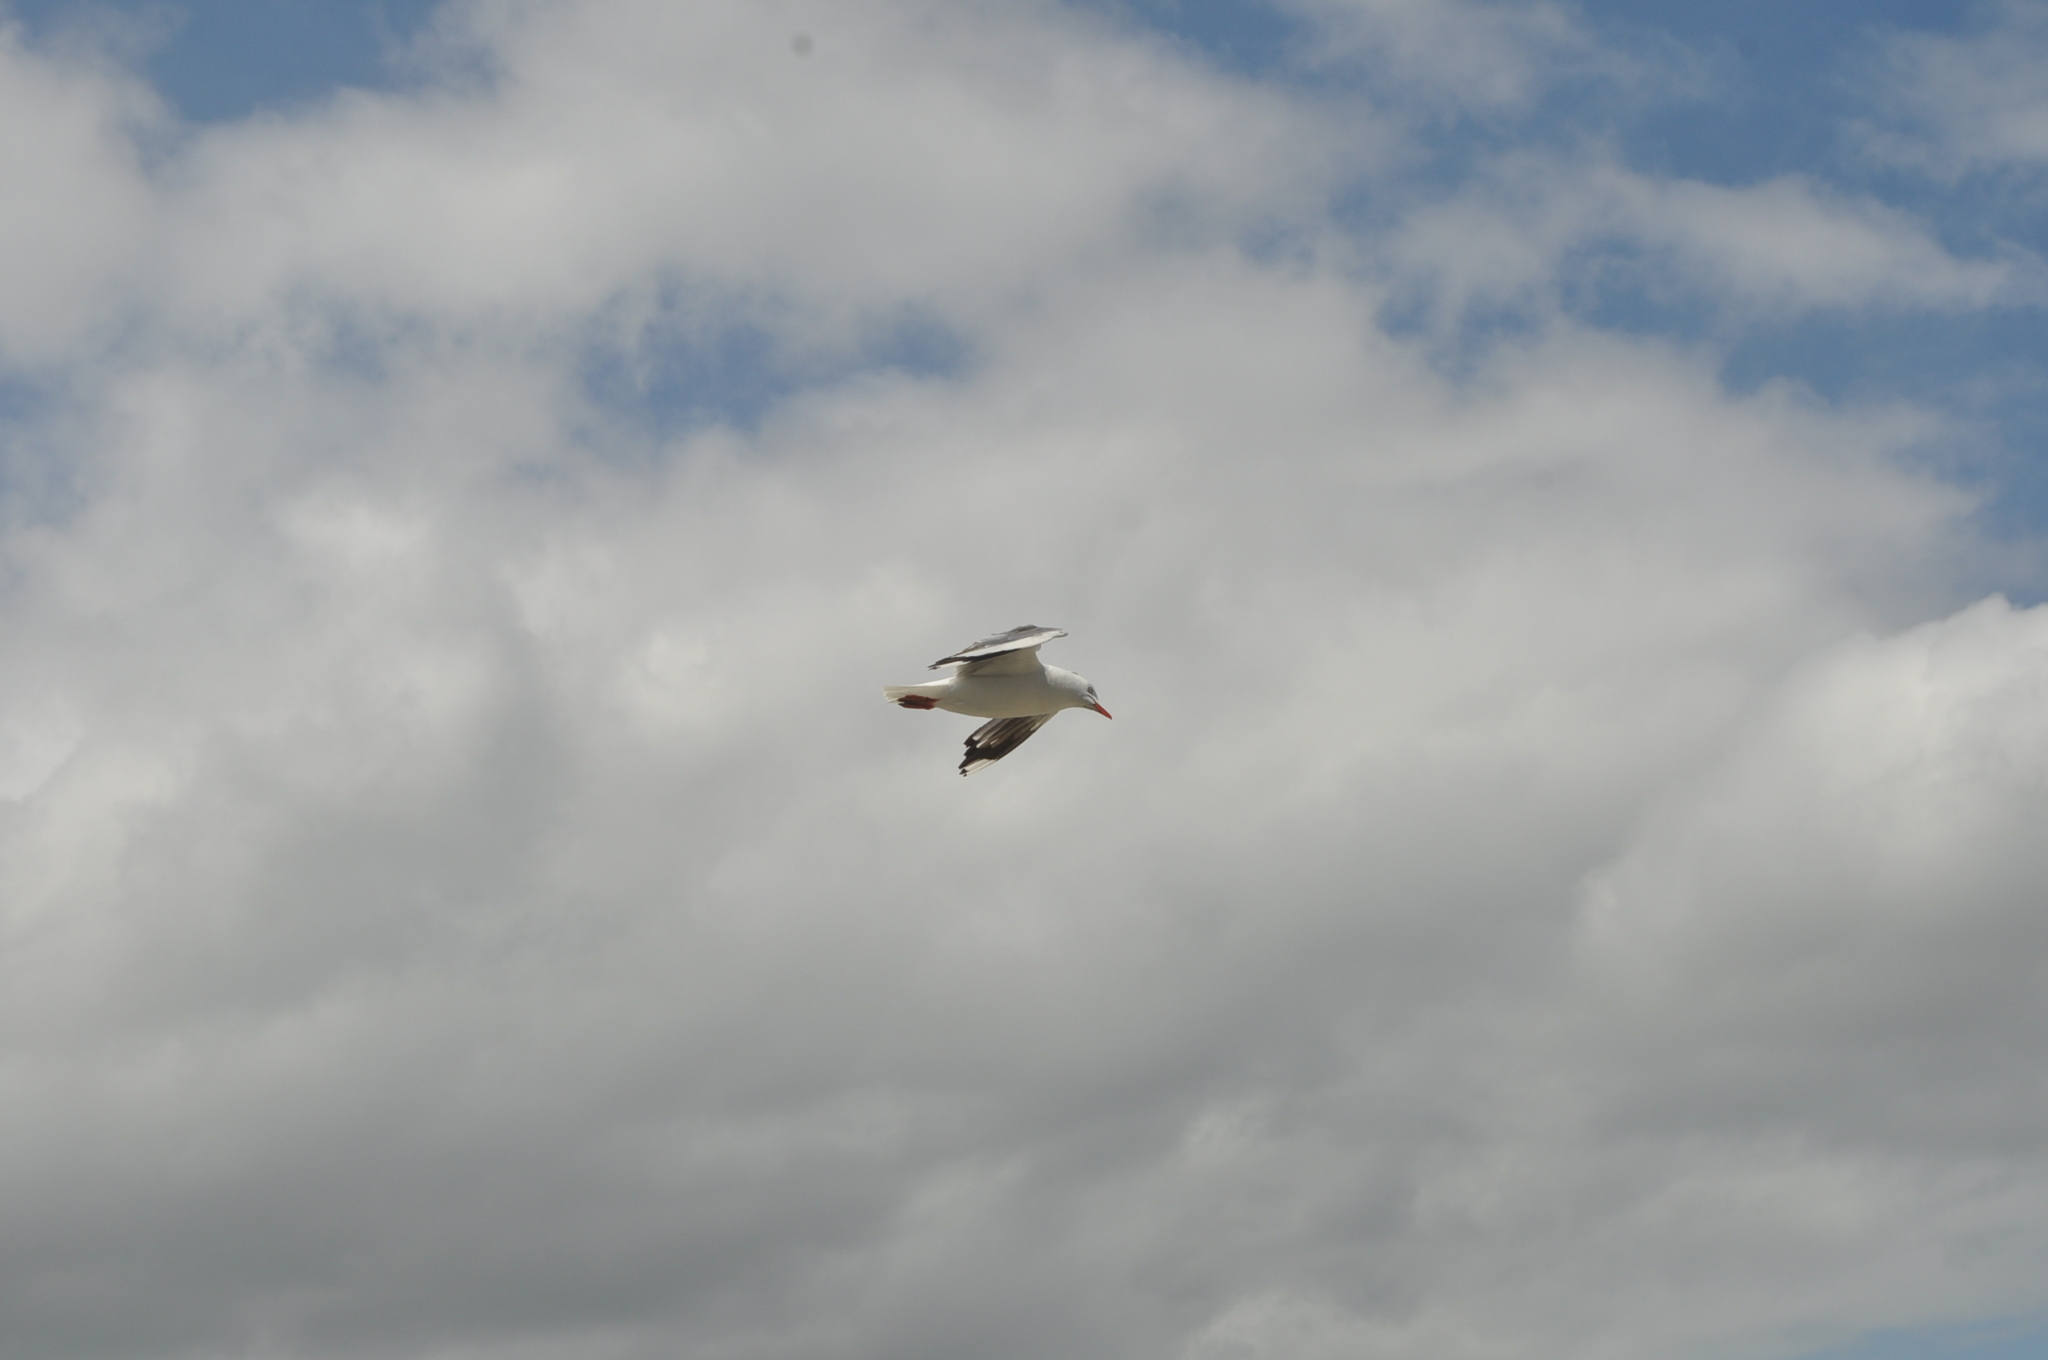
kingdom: Animalia
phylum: Chordata
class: Aves
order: Charadriiformes
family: Laridae
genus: Chroicocephalus
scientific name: Chroicocephalus novaehollandiae
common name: Silver gull
